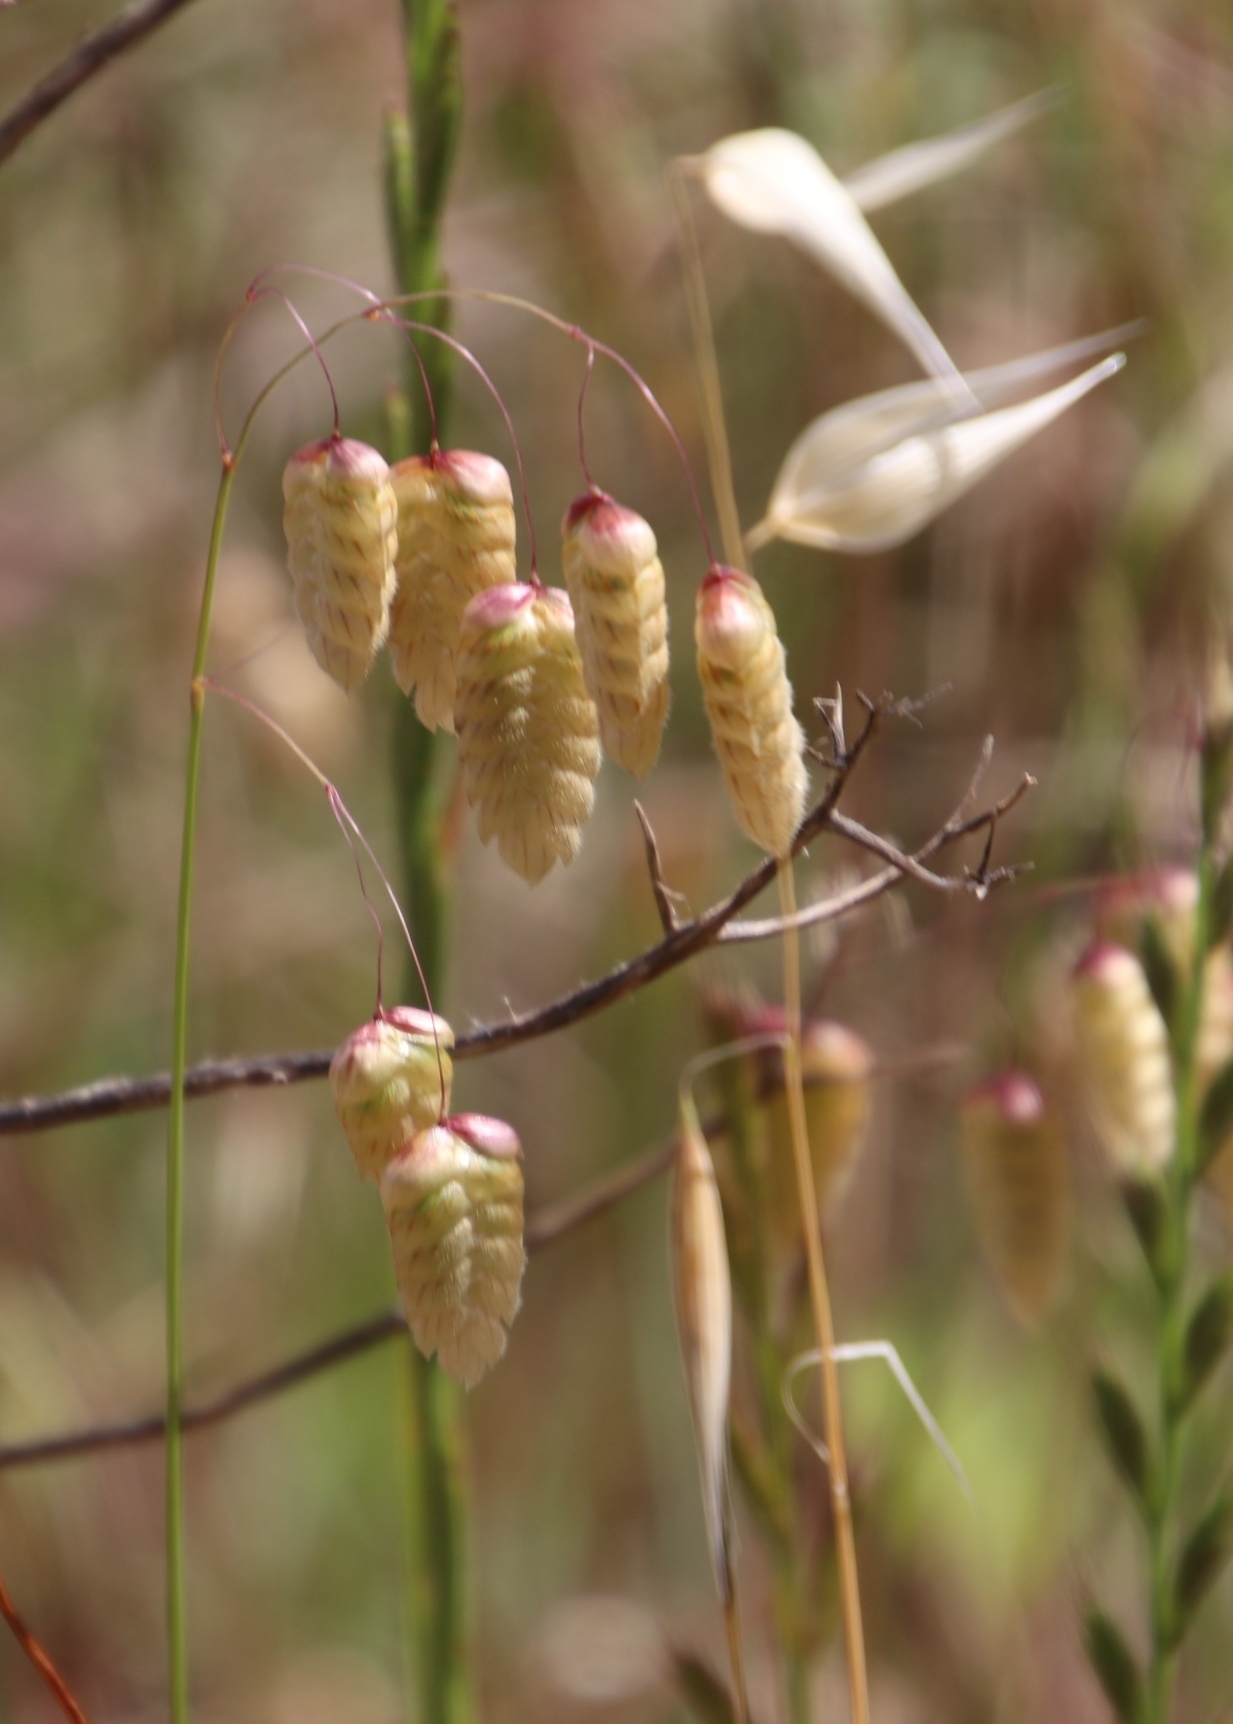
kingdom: Plantae
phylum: Tracheophyta
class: Liliopsida
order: Poales
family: Poaceae
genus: Briza
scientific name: Briza maxima
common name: Big quakinggrass
